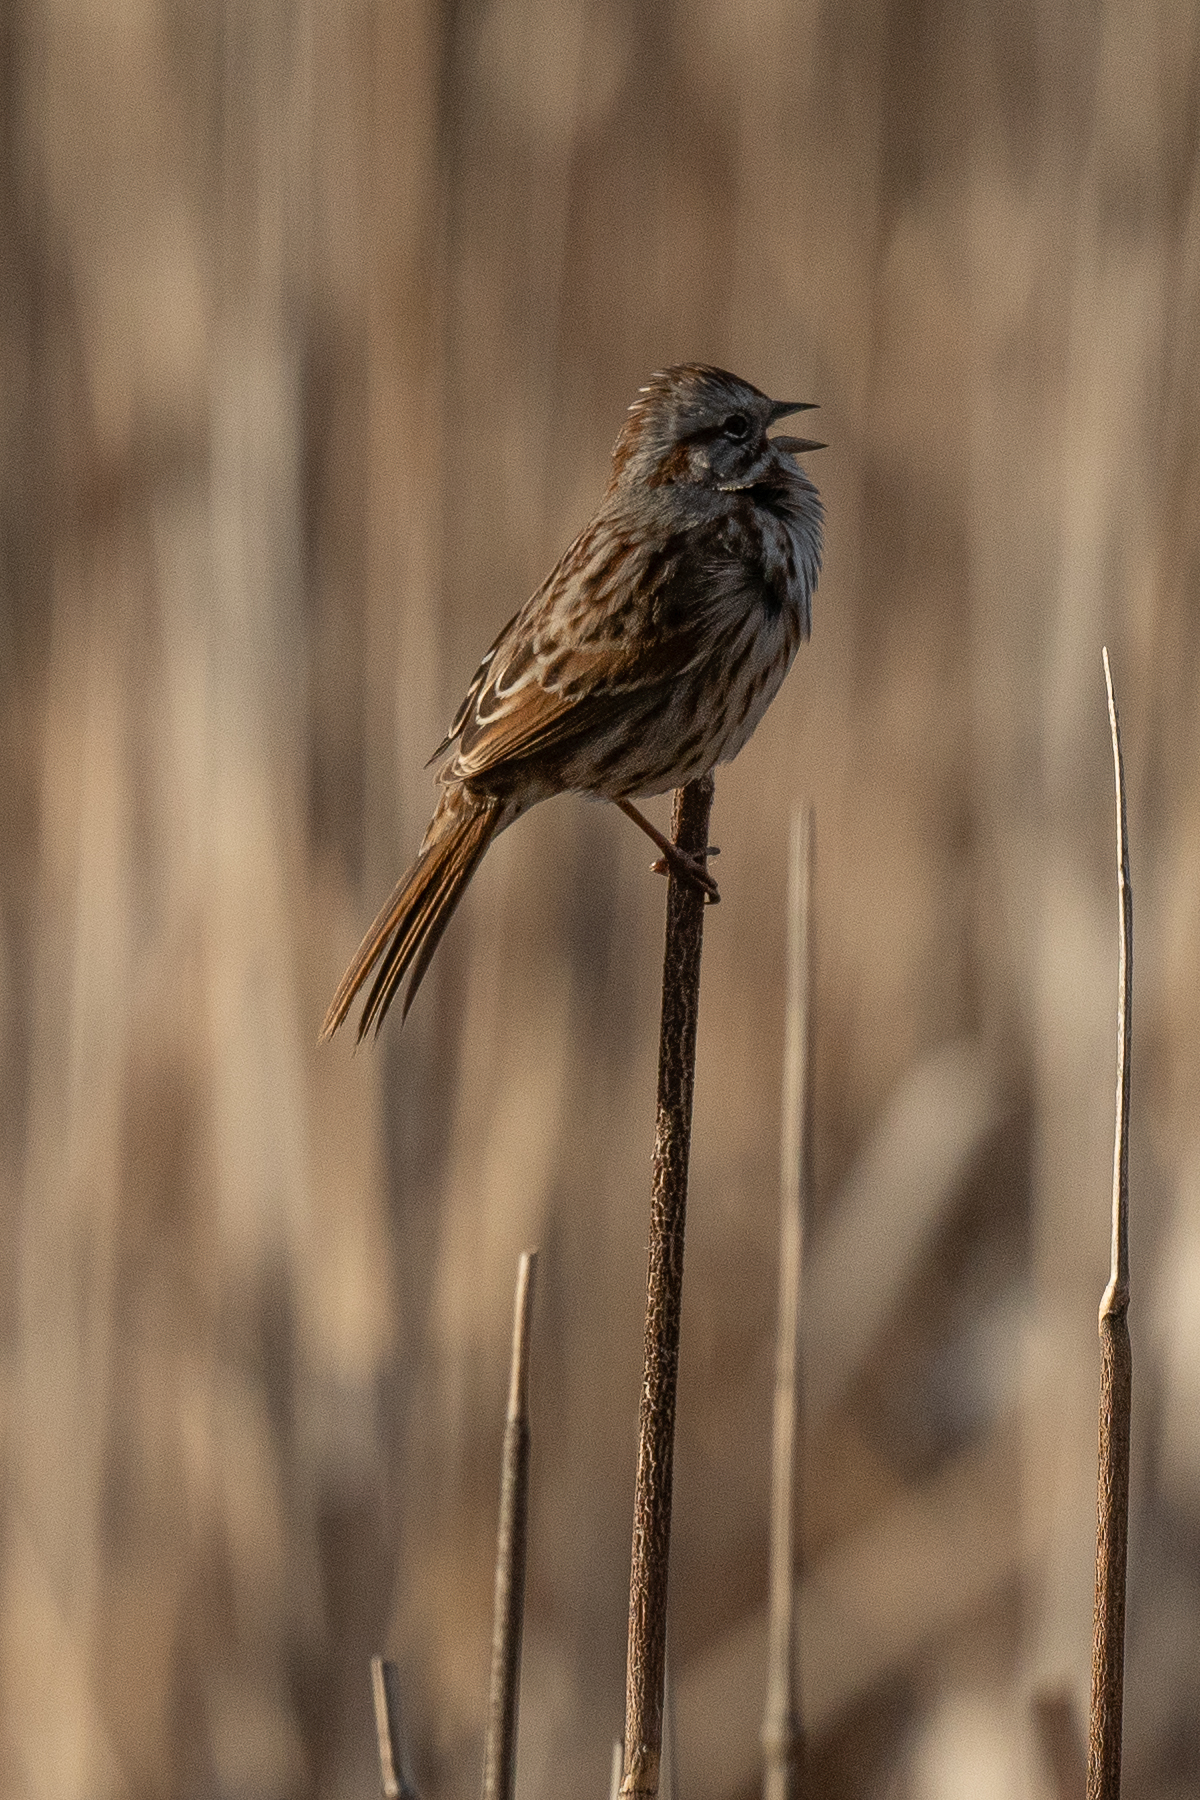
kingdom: Animalia
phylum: Chordata
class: Aves
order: Passeriformes
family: Passerellidae
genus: Melospiza
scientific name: Melospiza melodia
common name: Song sparrow
